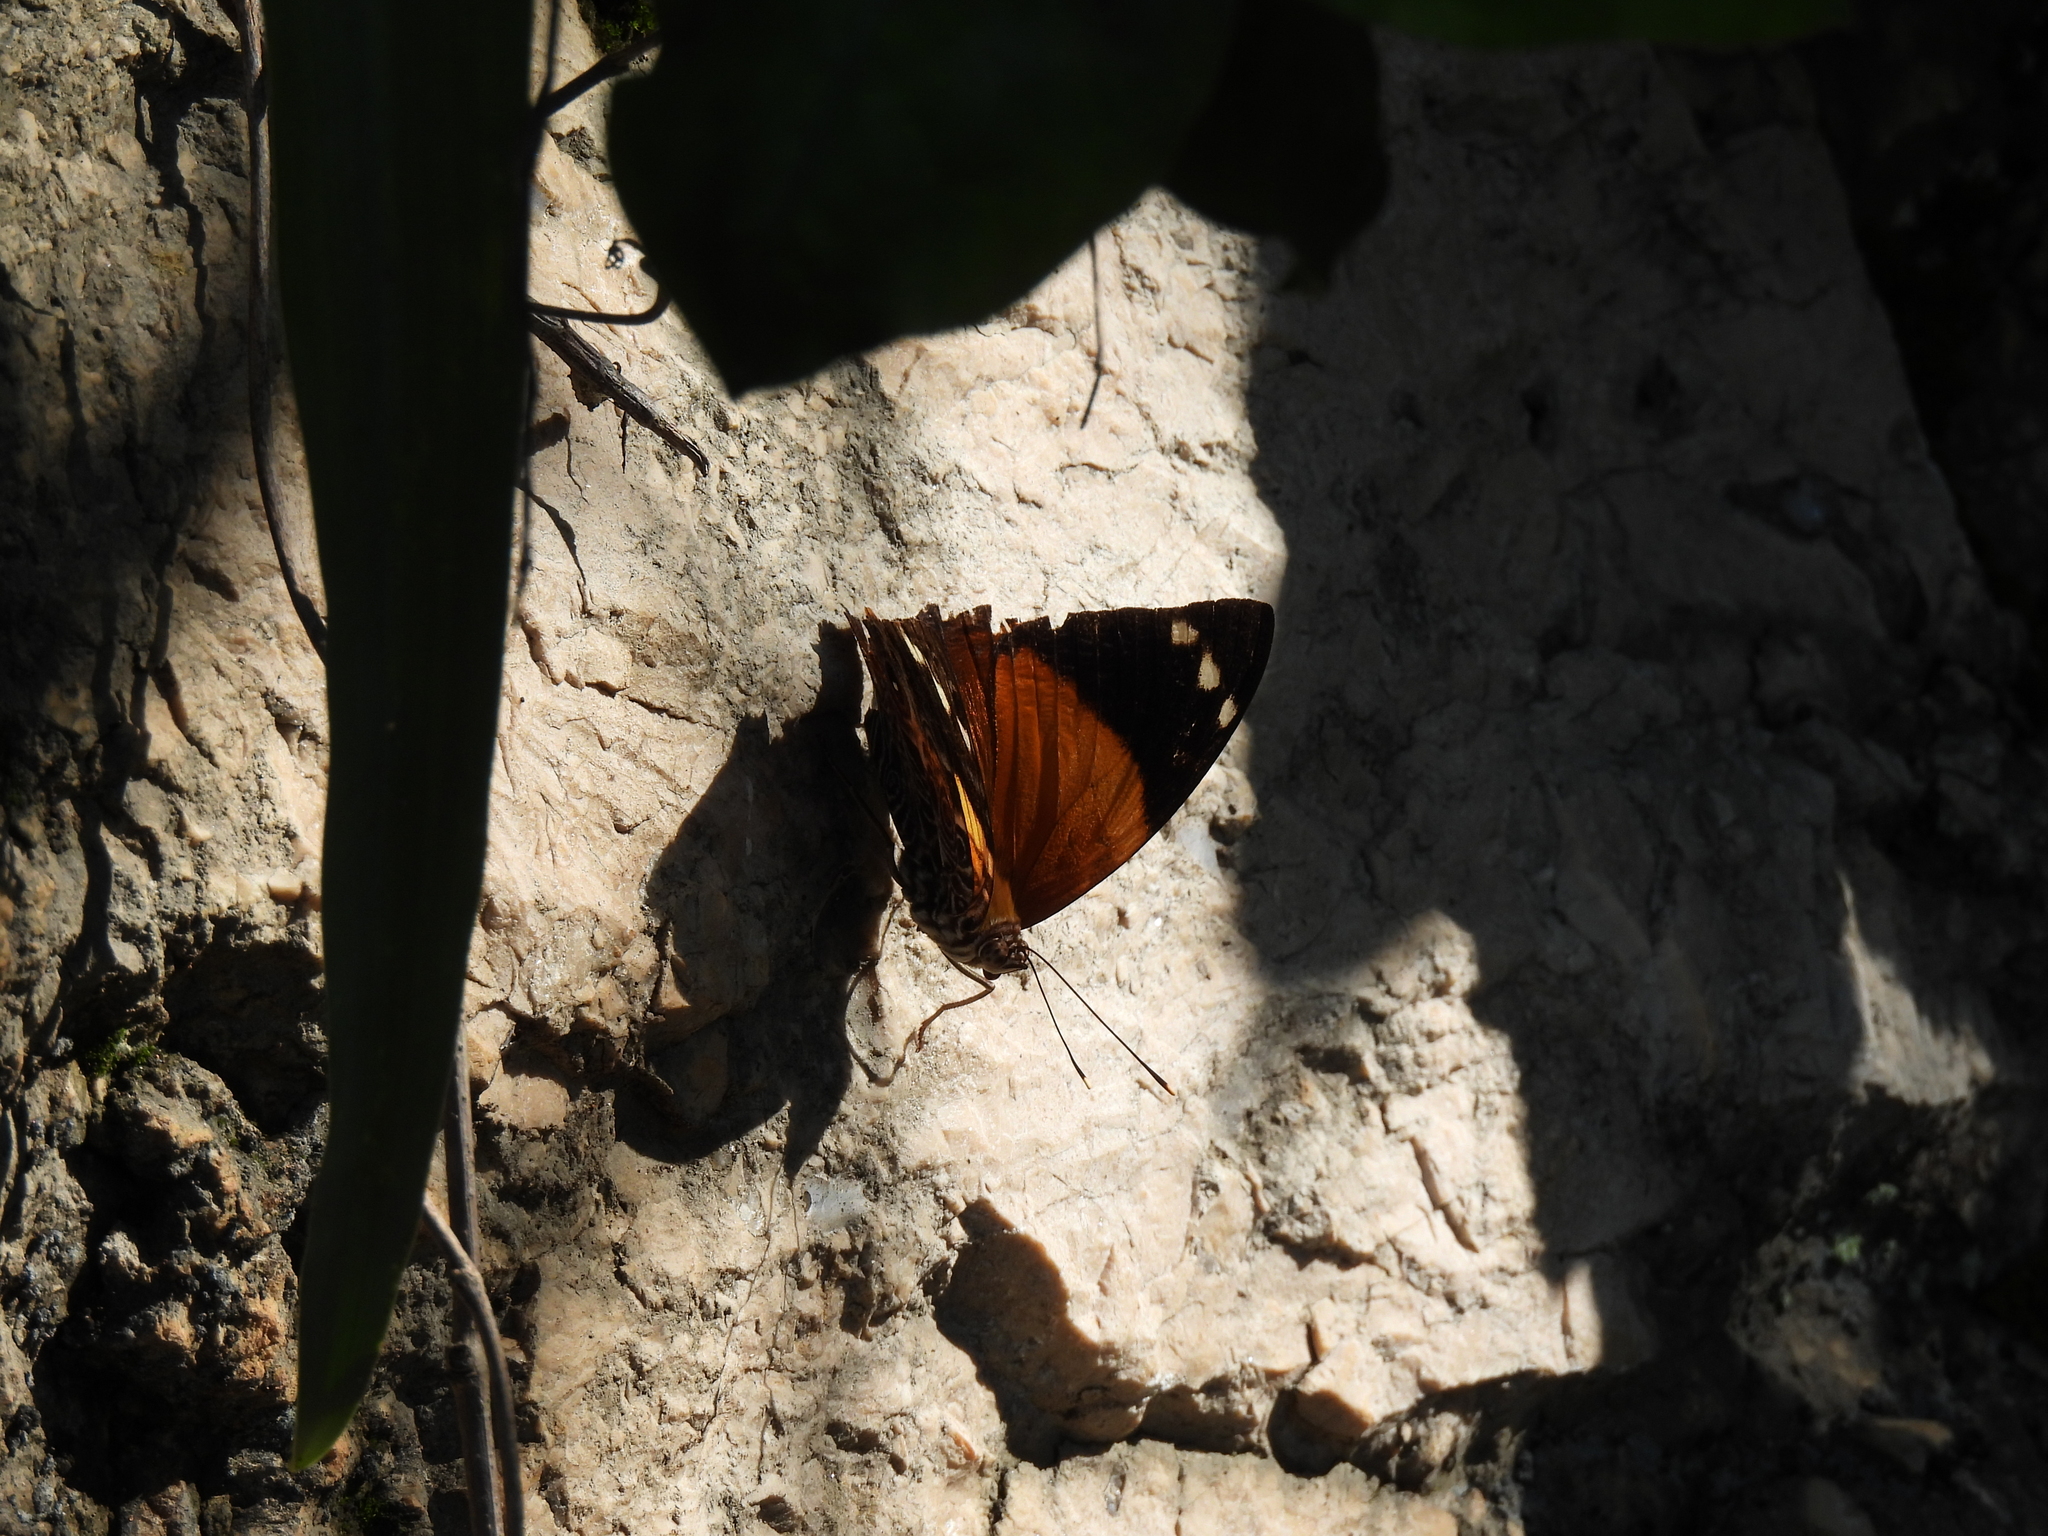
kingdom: Animalia
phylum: Arthropoda
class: Insecta
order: Lepidoptera
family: Nymphalidae
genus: Smyrna
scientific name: Smyrna blomfildia
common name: Blomfild's beauty
